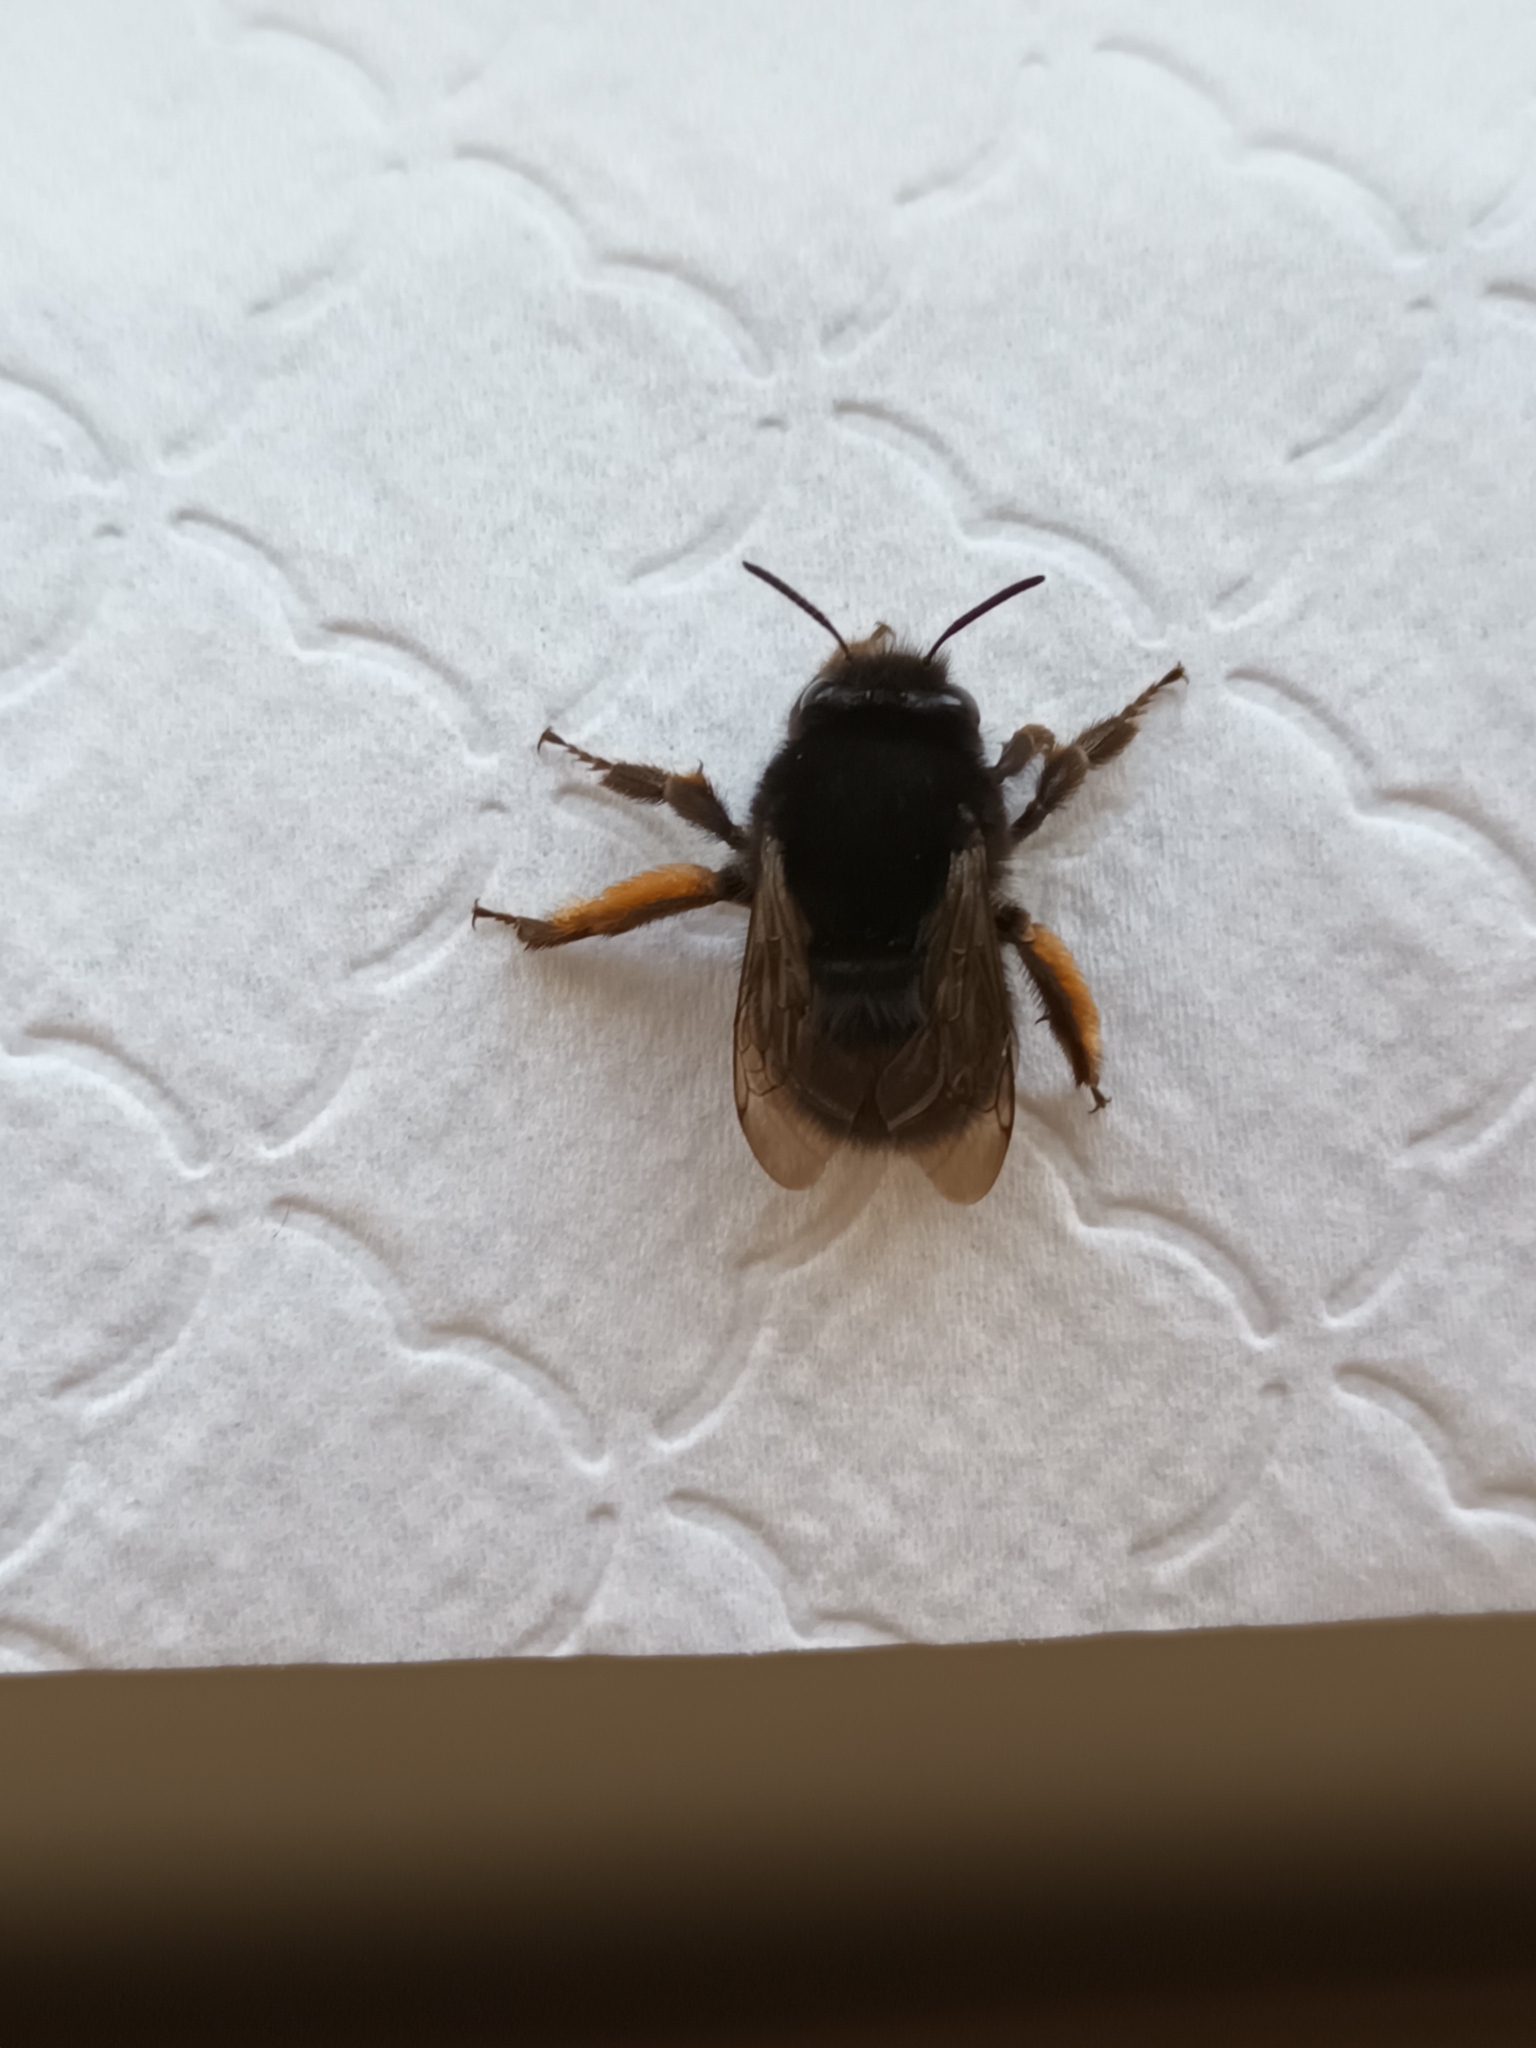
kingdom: Animalia
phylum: Arthropoda
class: Insecta
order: Hymenoptera
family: Apidae
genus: Anthophora
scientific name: Anthophora plumipes
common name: Hairy-footed flower bee
